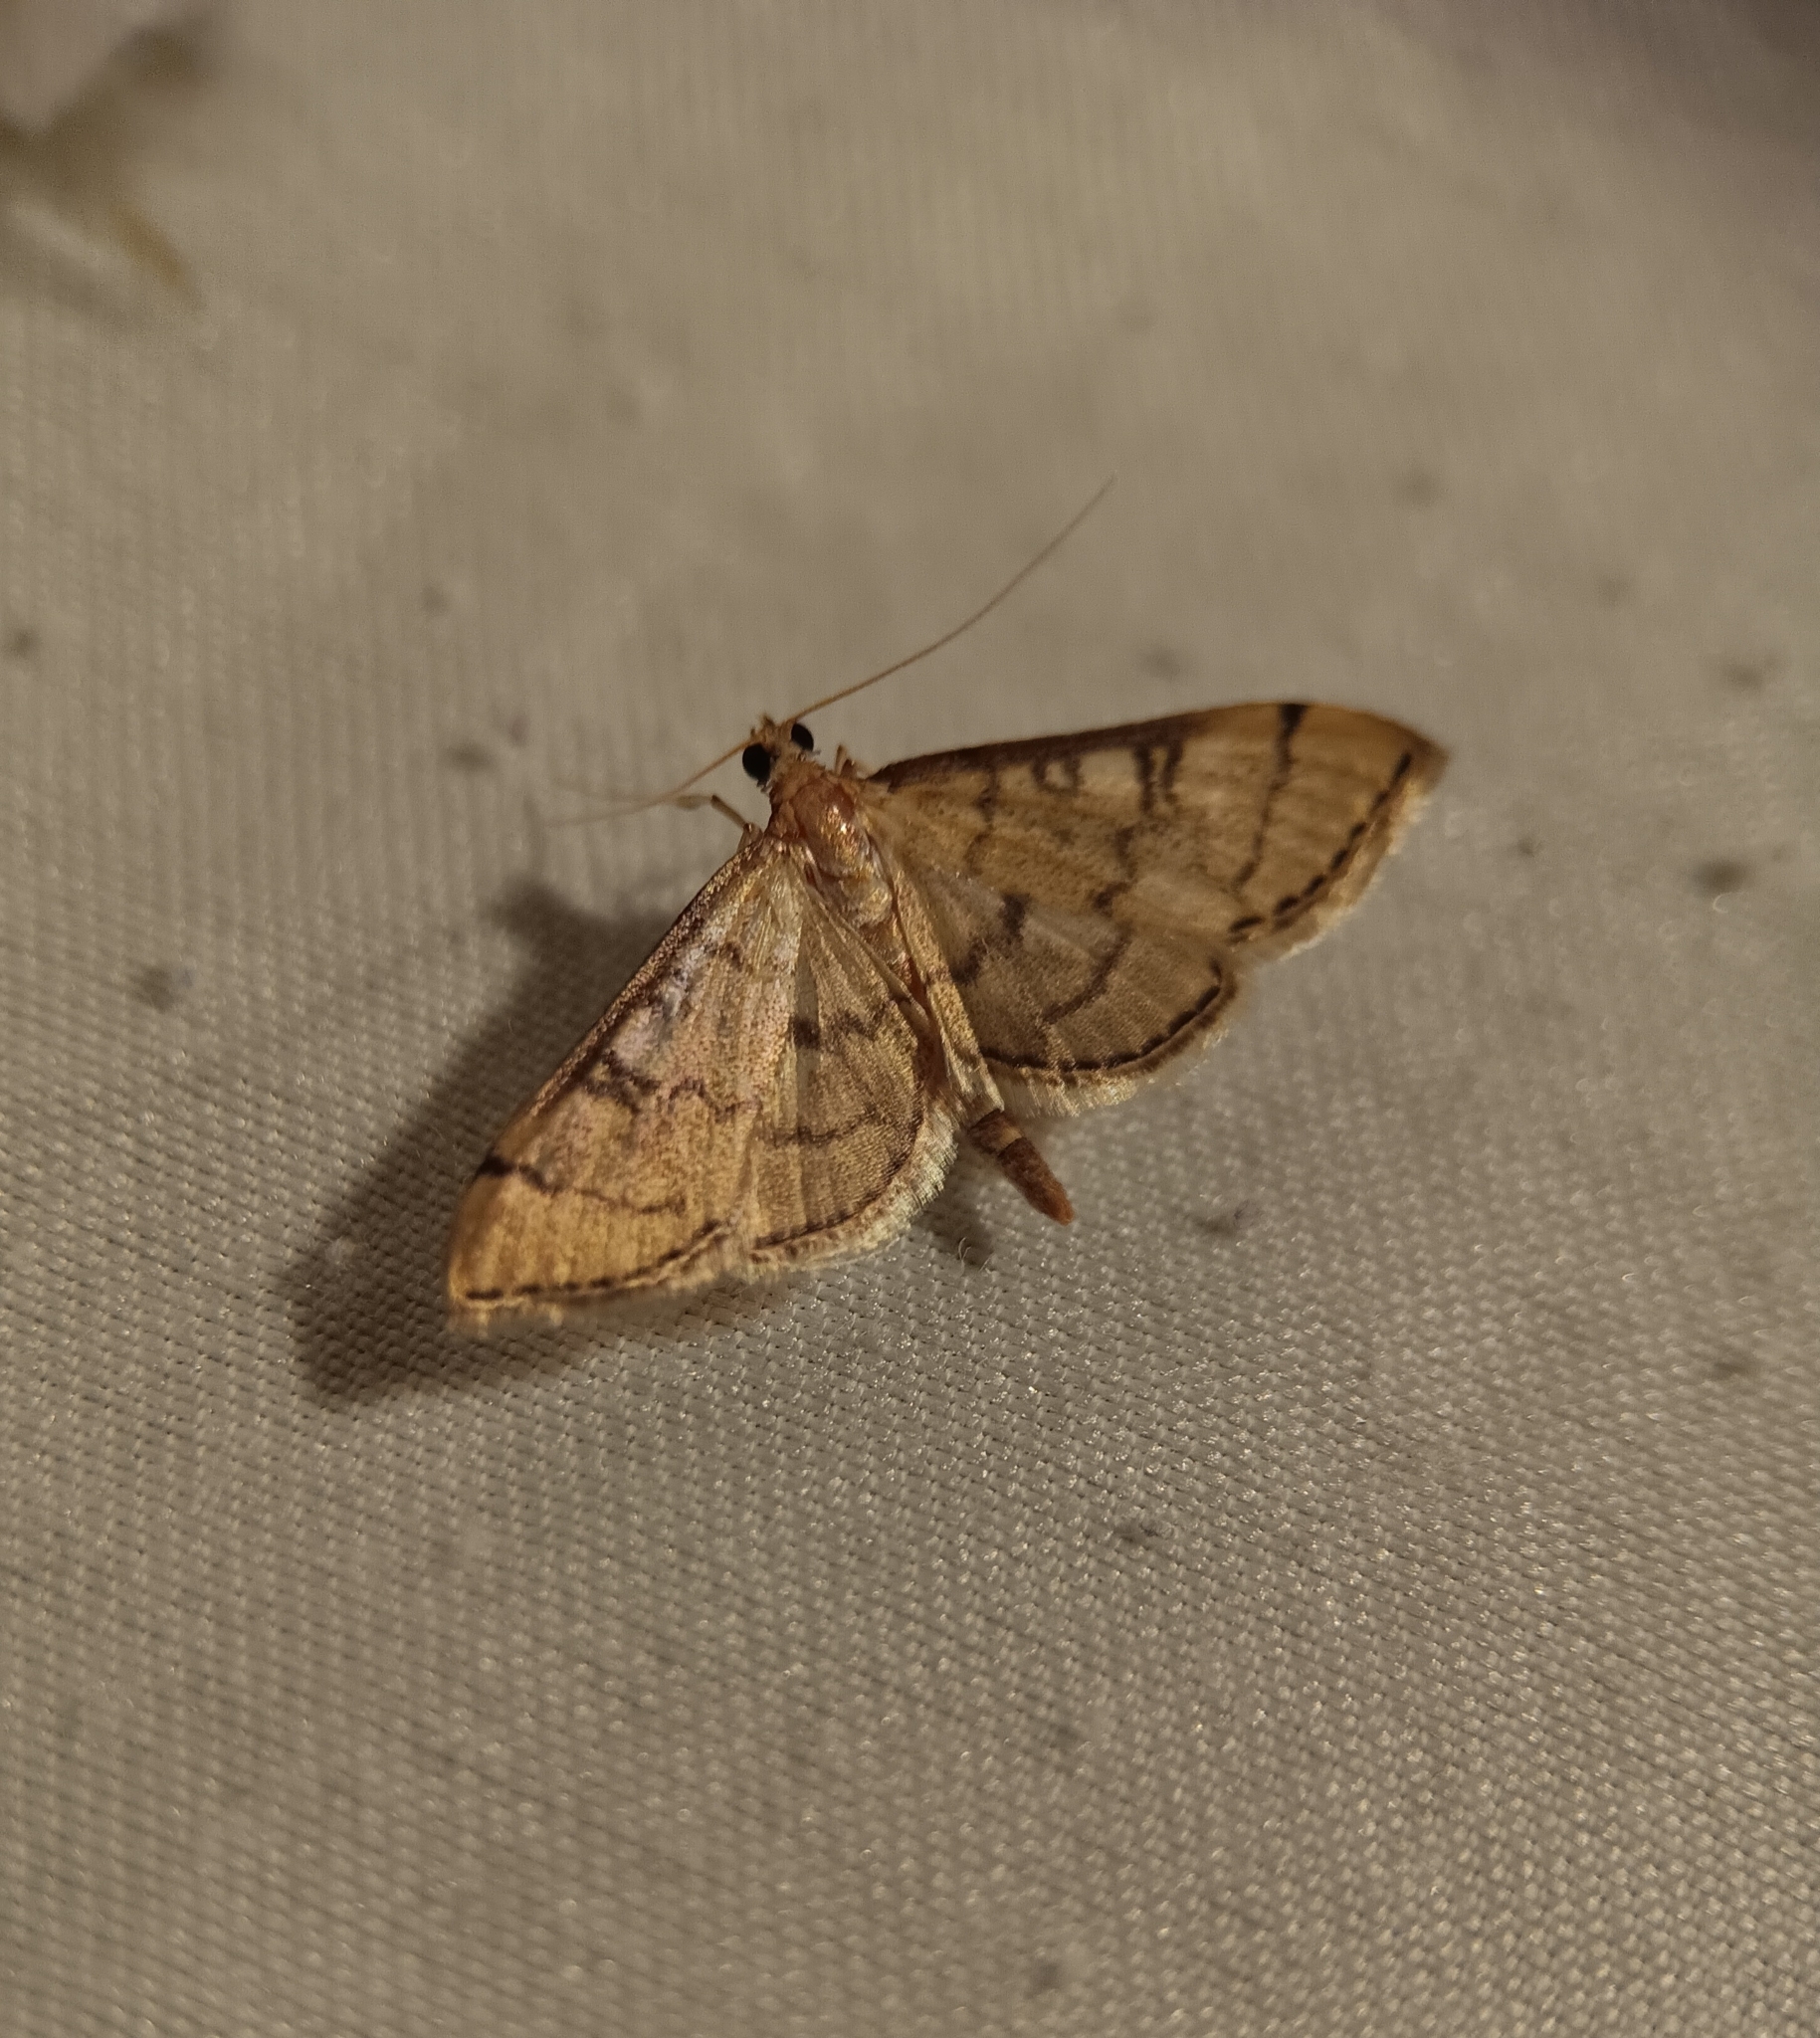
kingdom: Animalia
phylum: Arthropoda
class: Insecta
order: Lepidoptera
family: Crambidae
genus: Lamprosema
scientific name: Lamprosema Blepharomastix ranalis
